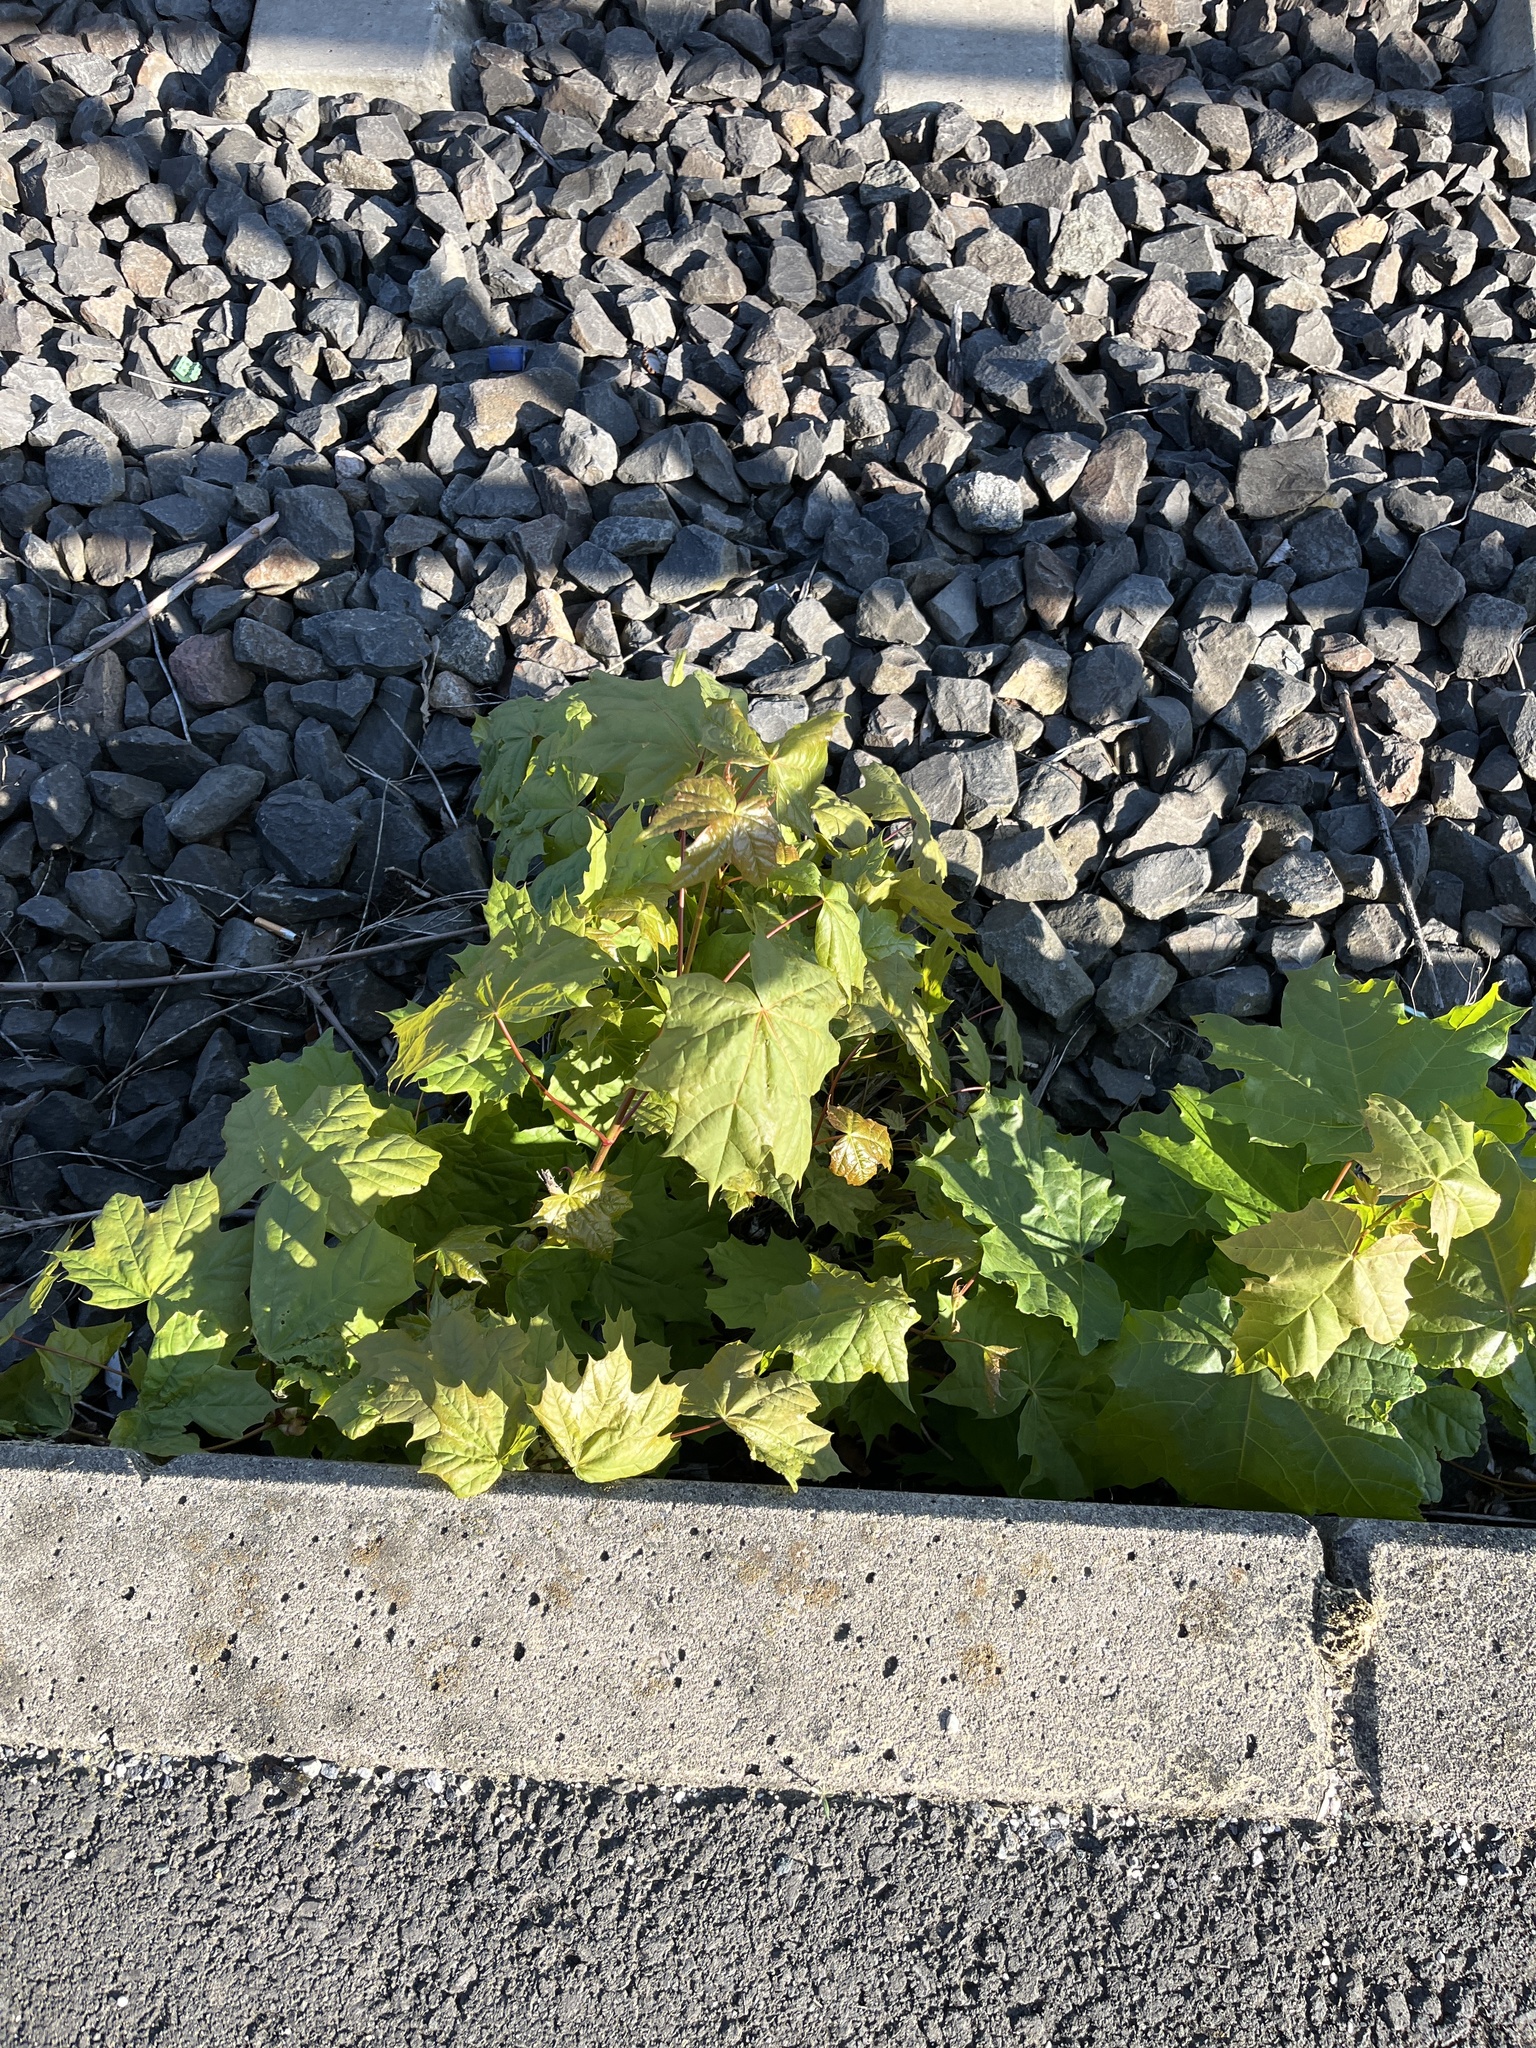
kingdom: Plantae
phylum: Tracheophyta
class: Magnoliopsida
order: Sapindales
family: Sapindaceae
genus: Acer
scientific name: Acer platanoides
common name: Norway maple
